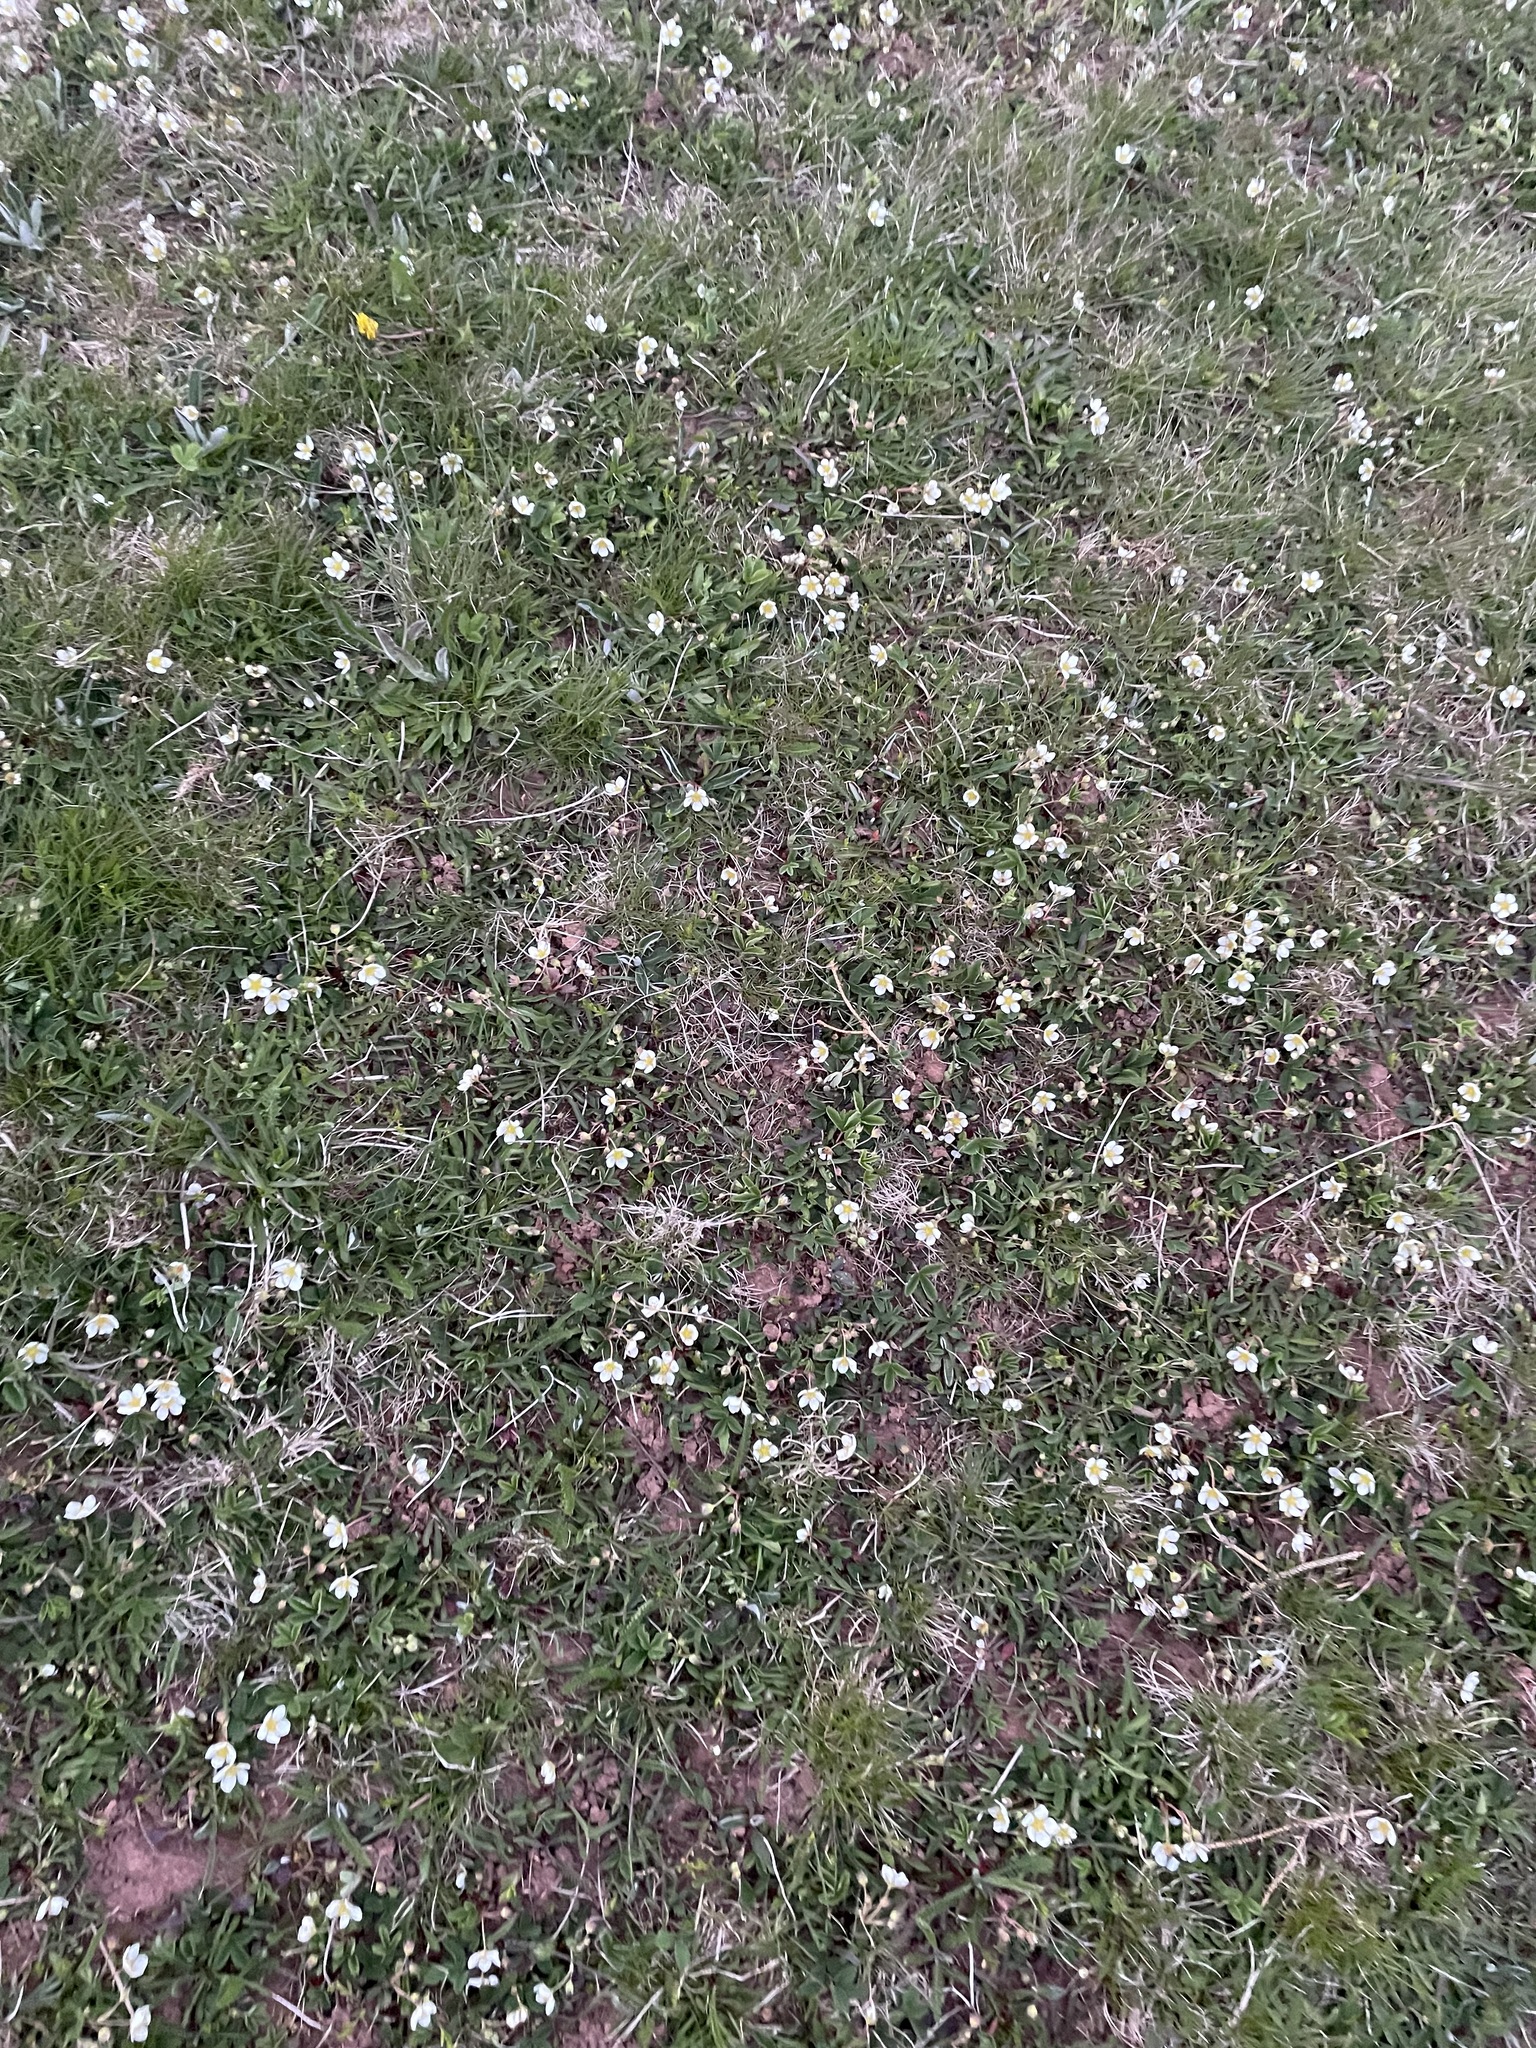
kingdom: Plantae
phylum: Tracheophyta
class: Magnoliopsida
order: Rosales
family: Rosaceae
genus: Fragaria
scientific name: Fragaria virginiana
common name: Thickleaved wild strawberry
